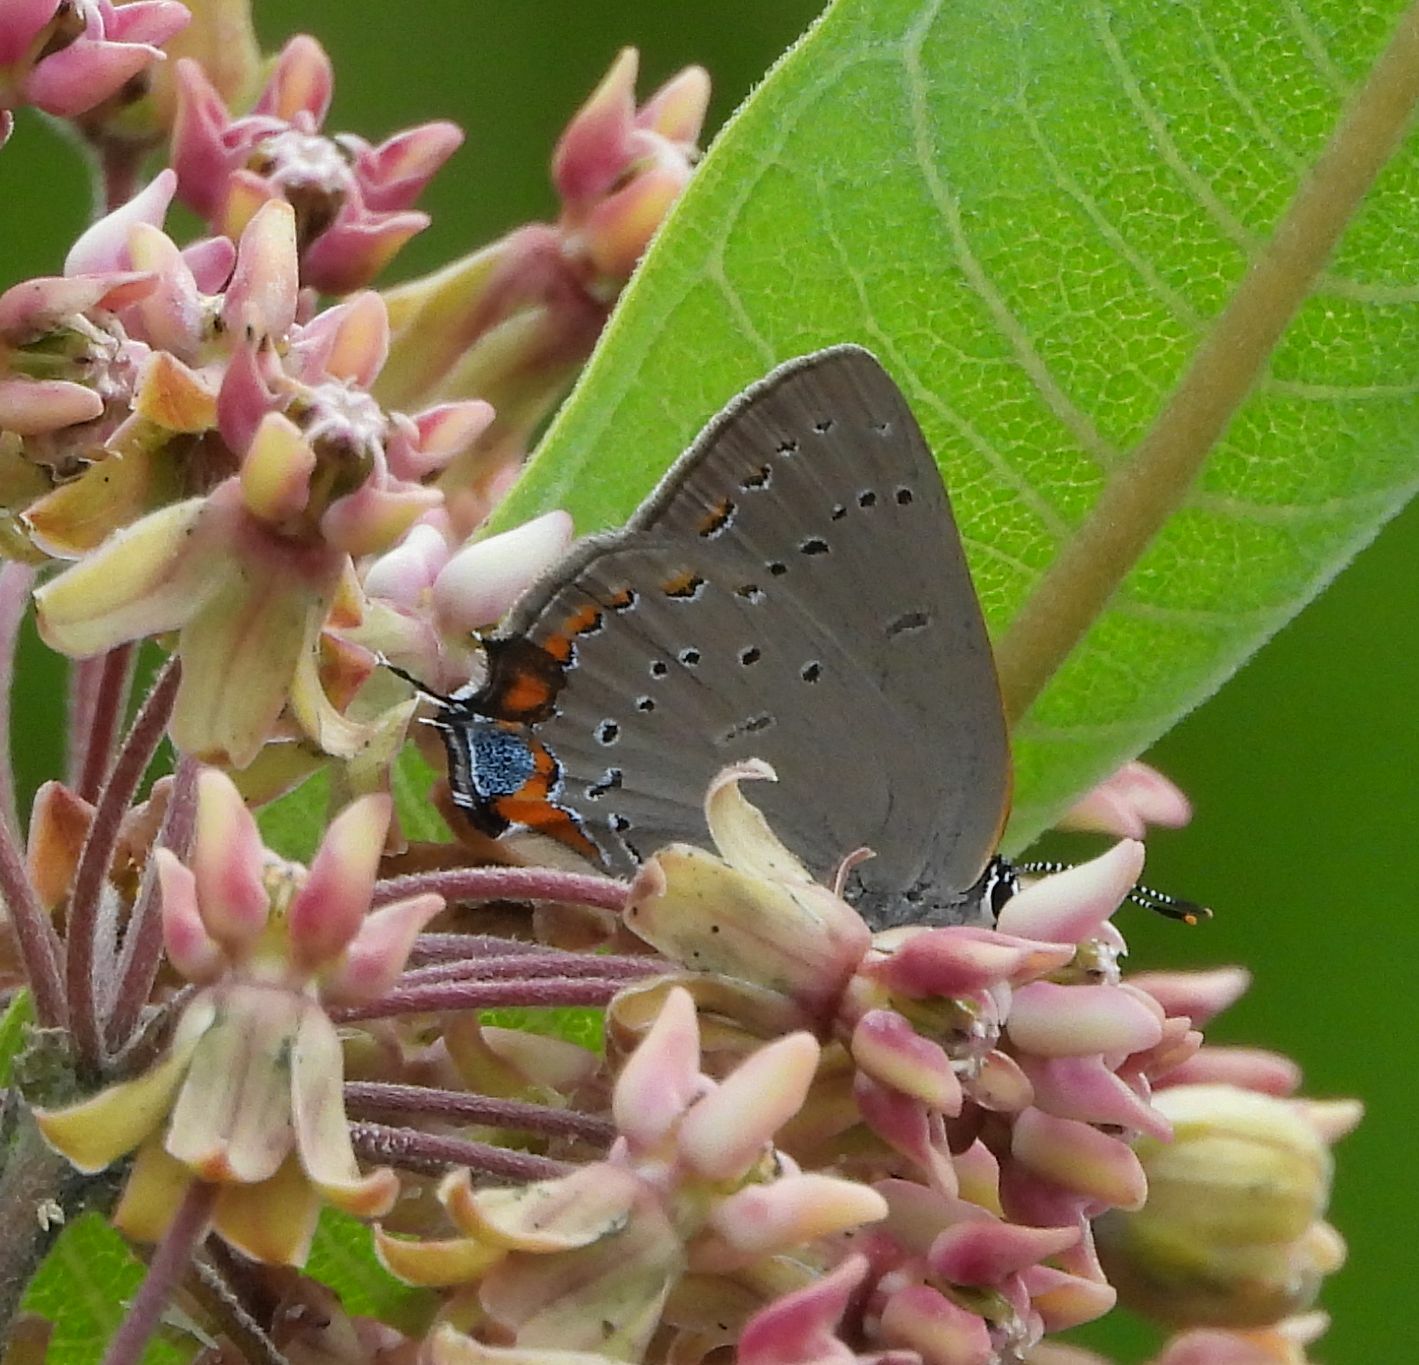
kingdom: Animalia
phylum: Arthropoda
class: Insecta
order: Lepidoptera
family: Lycaenidae
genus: Strymon
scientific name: Strymon acadica
